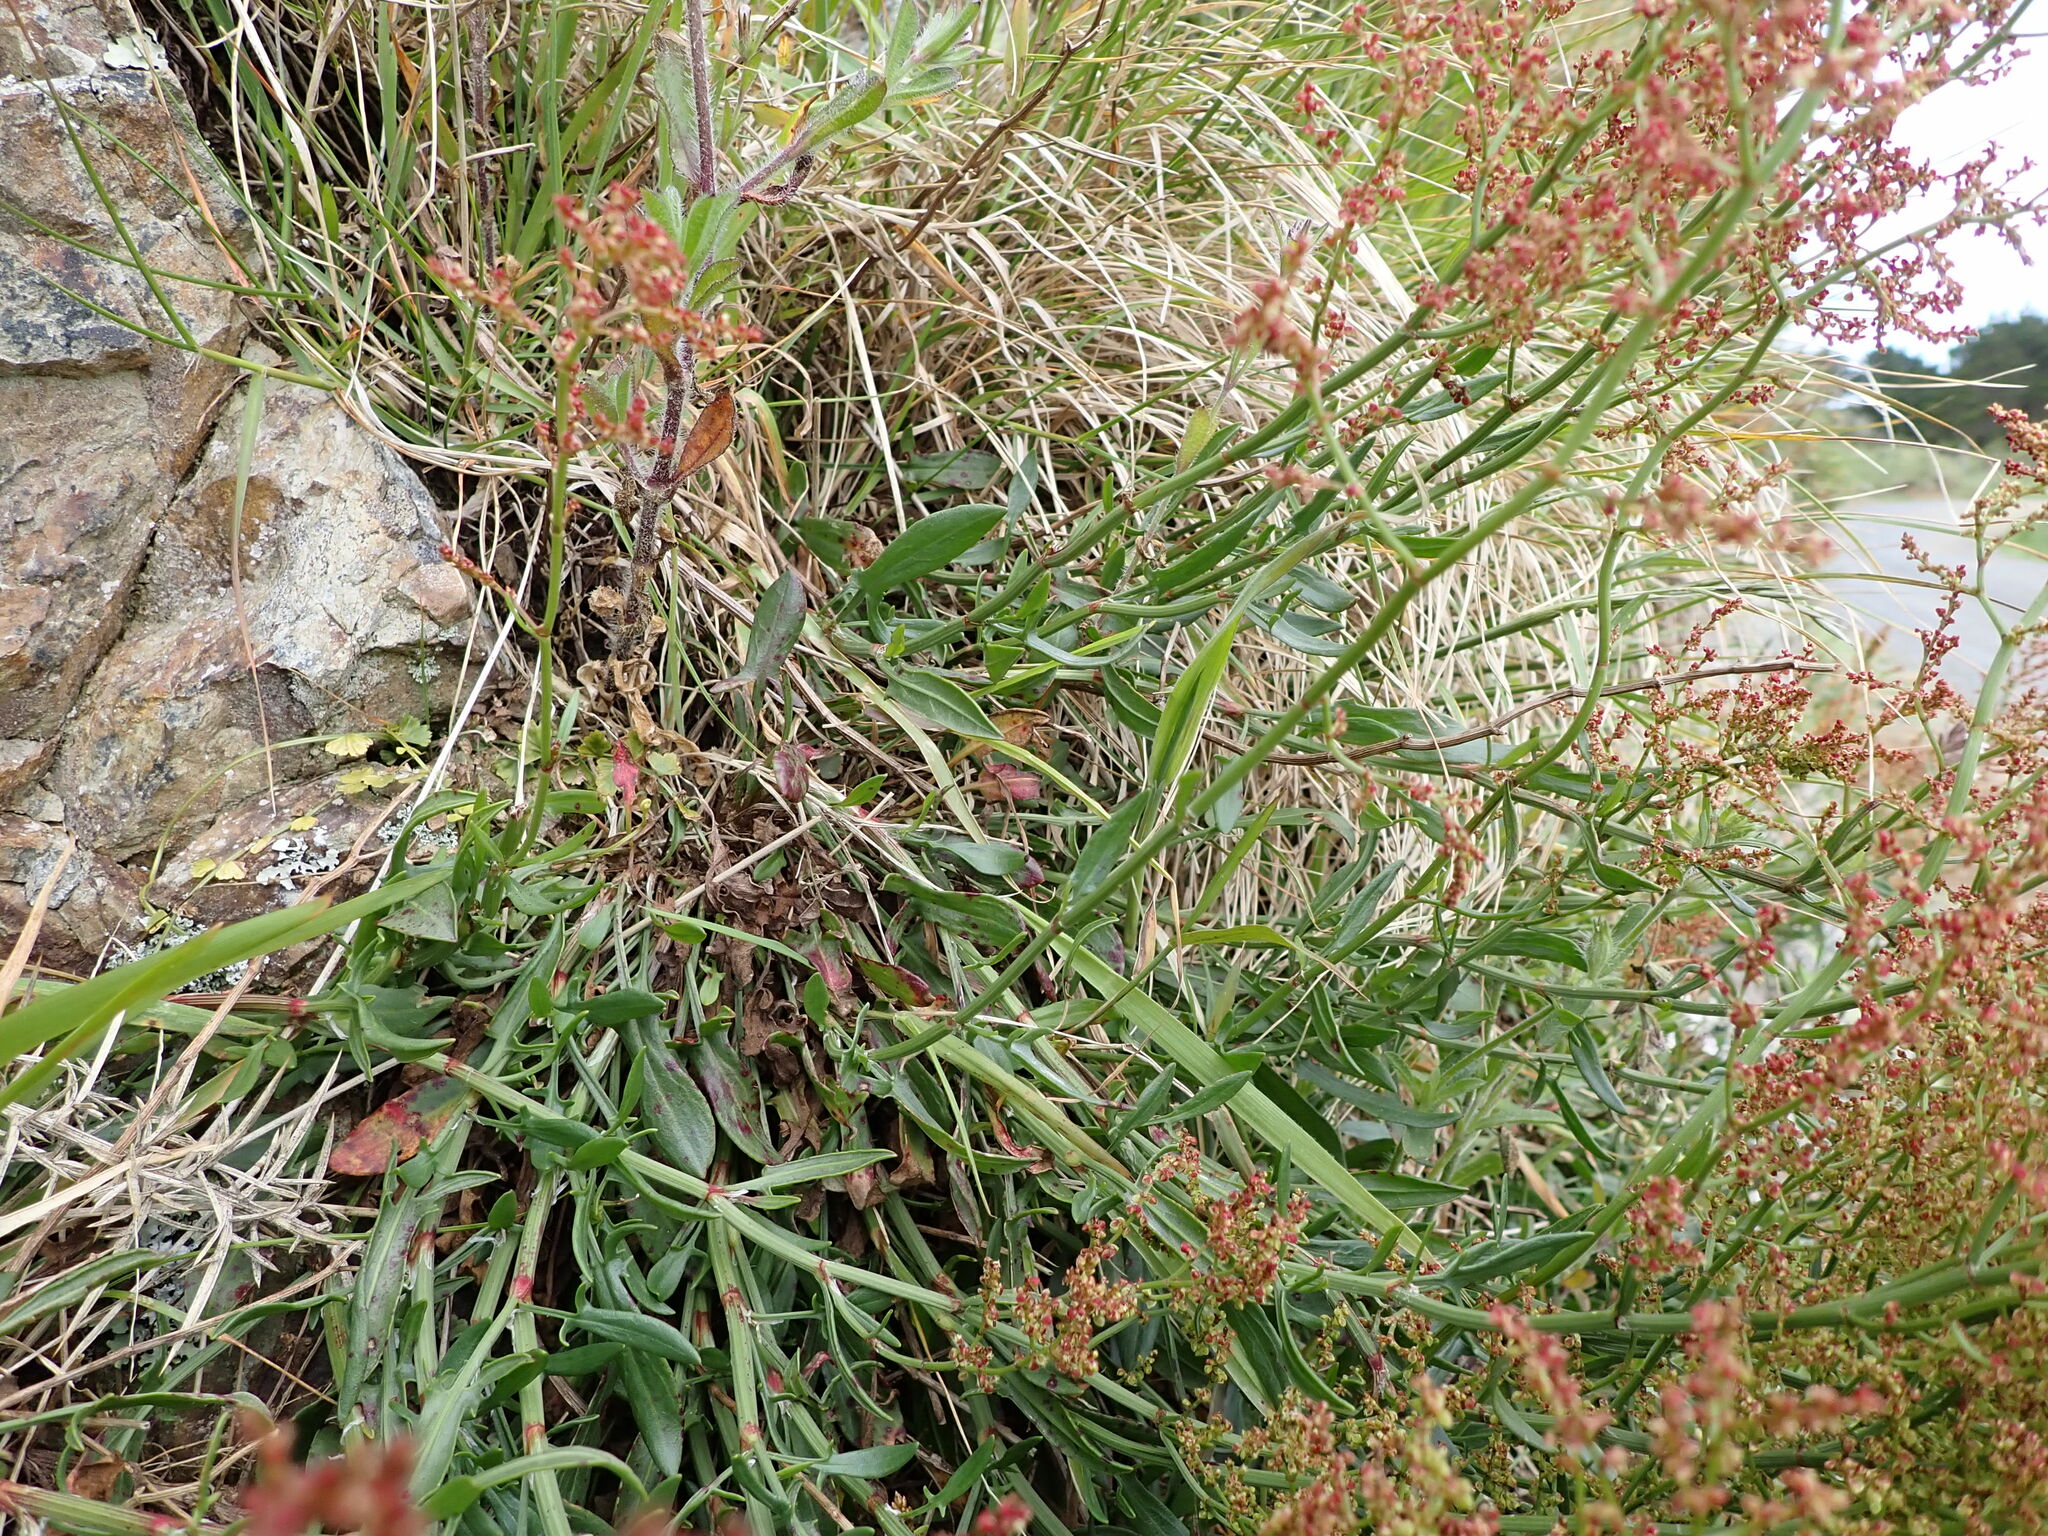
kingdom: Plantae
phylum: Tracheophyta
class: Magnoliopsida
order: Caryophyllales
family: Polygonaceae
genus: Rumex
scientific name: Rumex acetosella
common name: Common sheep sorrel
